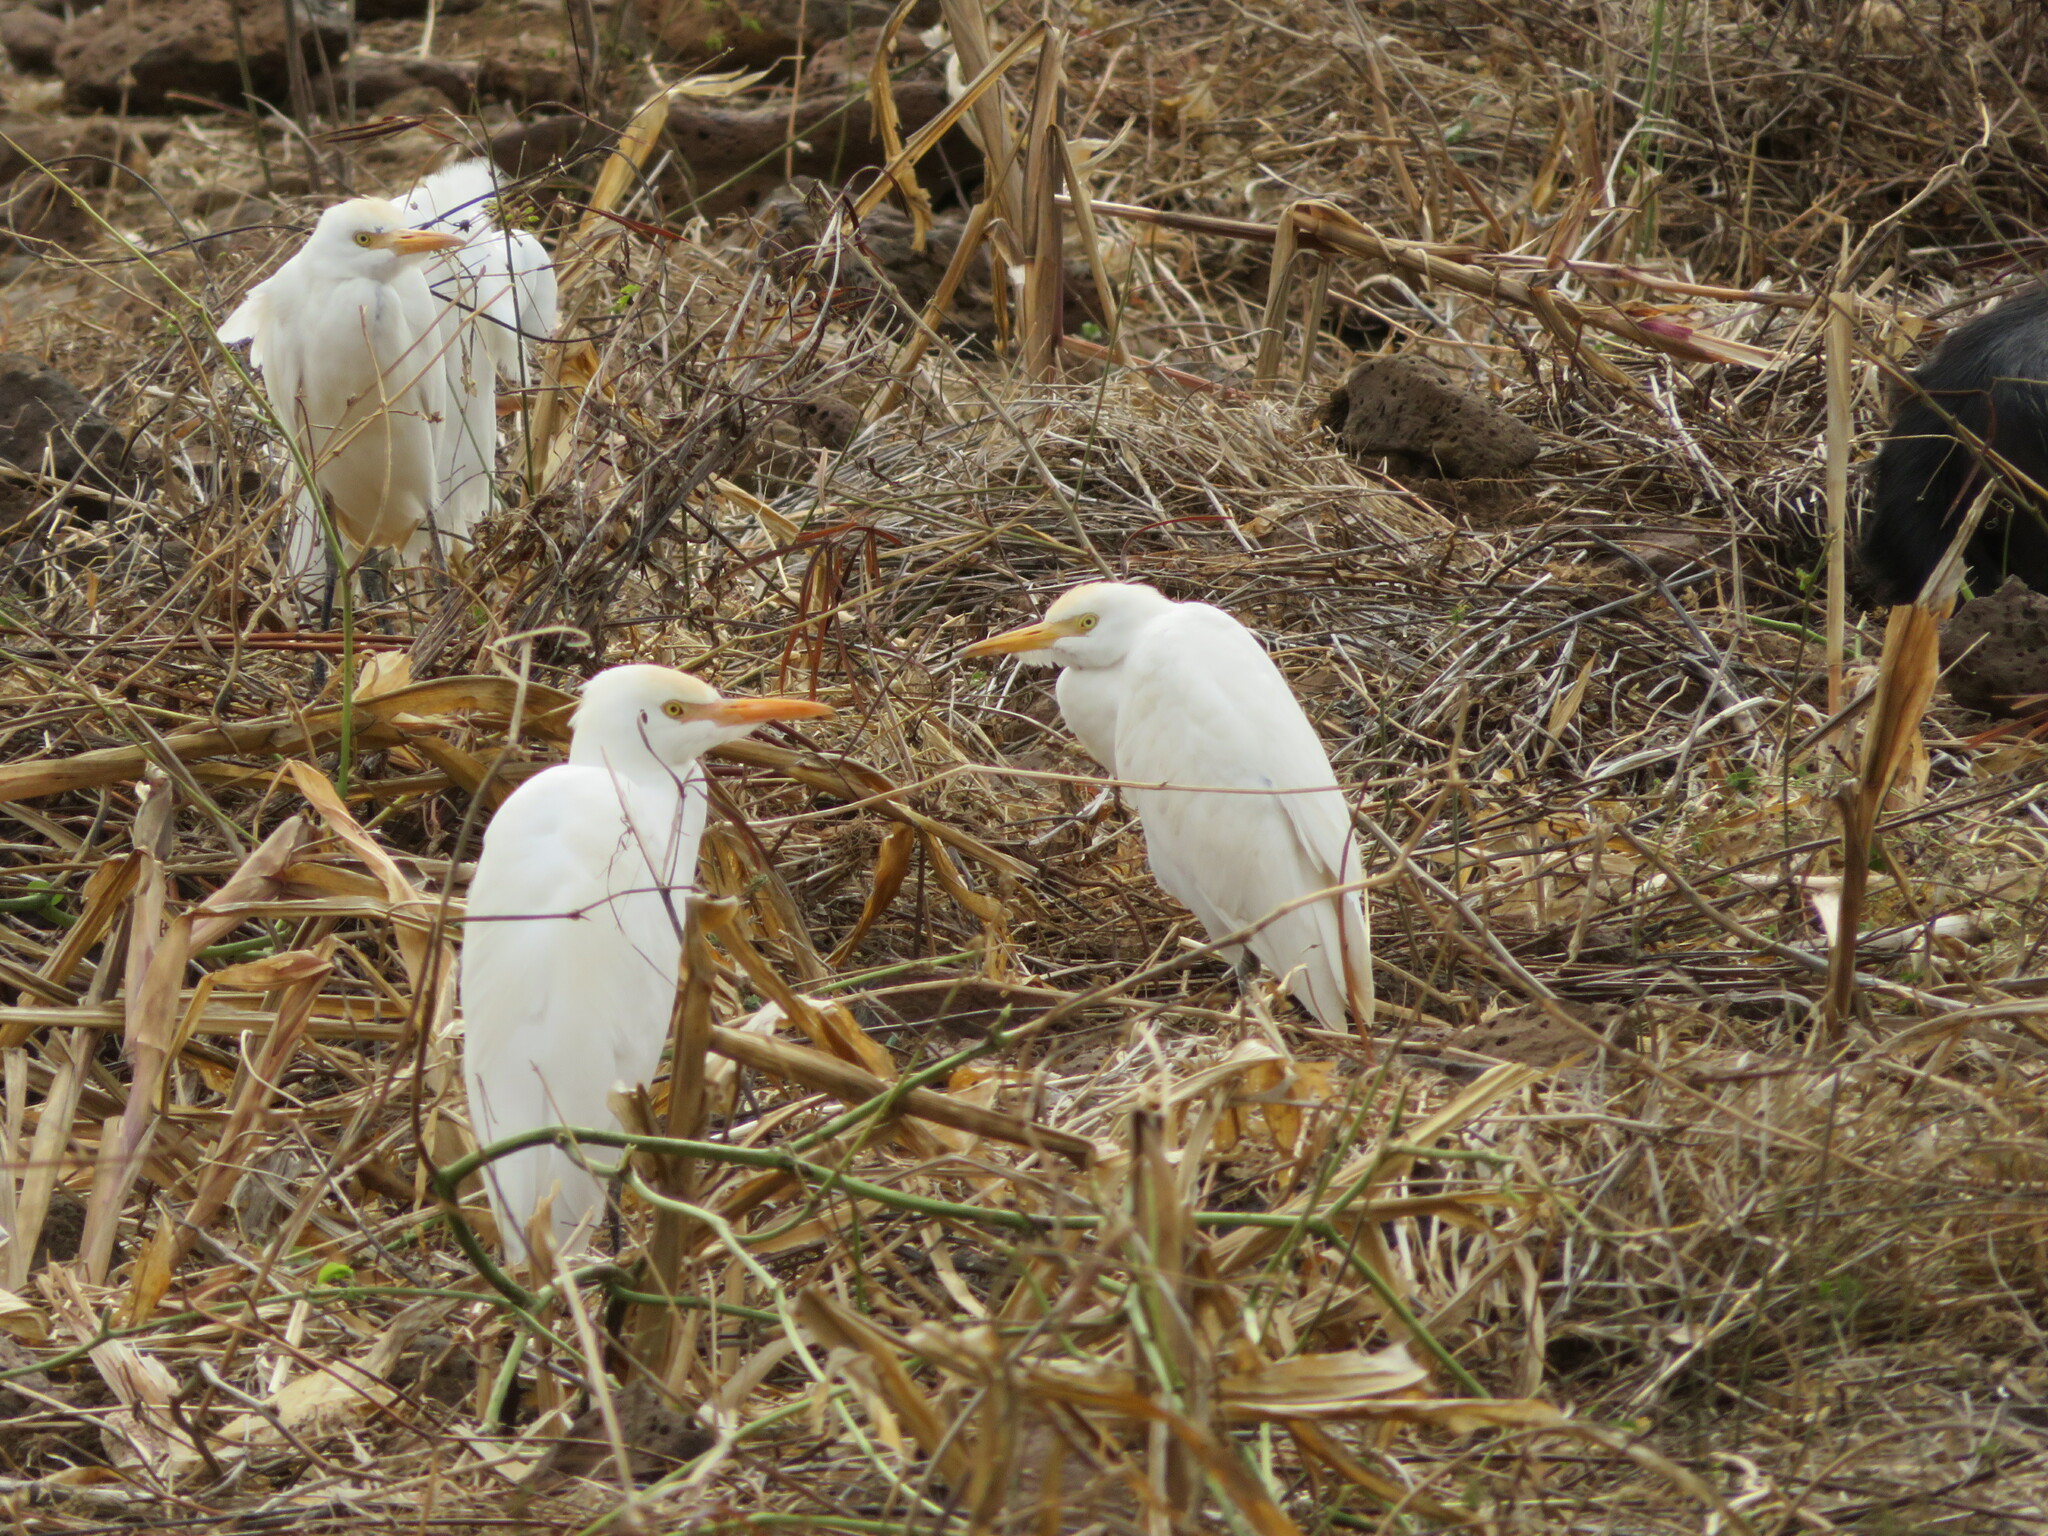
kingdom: Animalia
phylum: Chordata
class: Aves
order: Pelecaniformes
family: Ardeidae
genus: Bubulcus
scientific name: Bubulcus ibis
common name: Cattle egret
